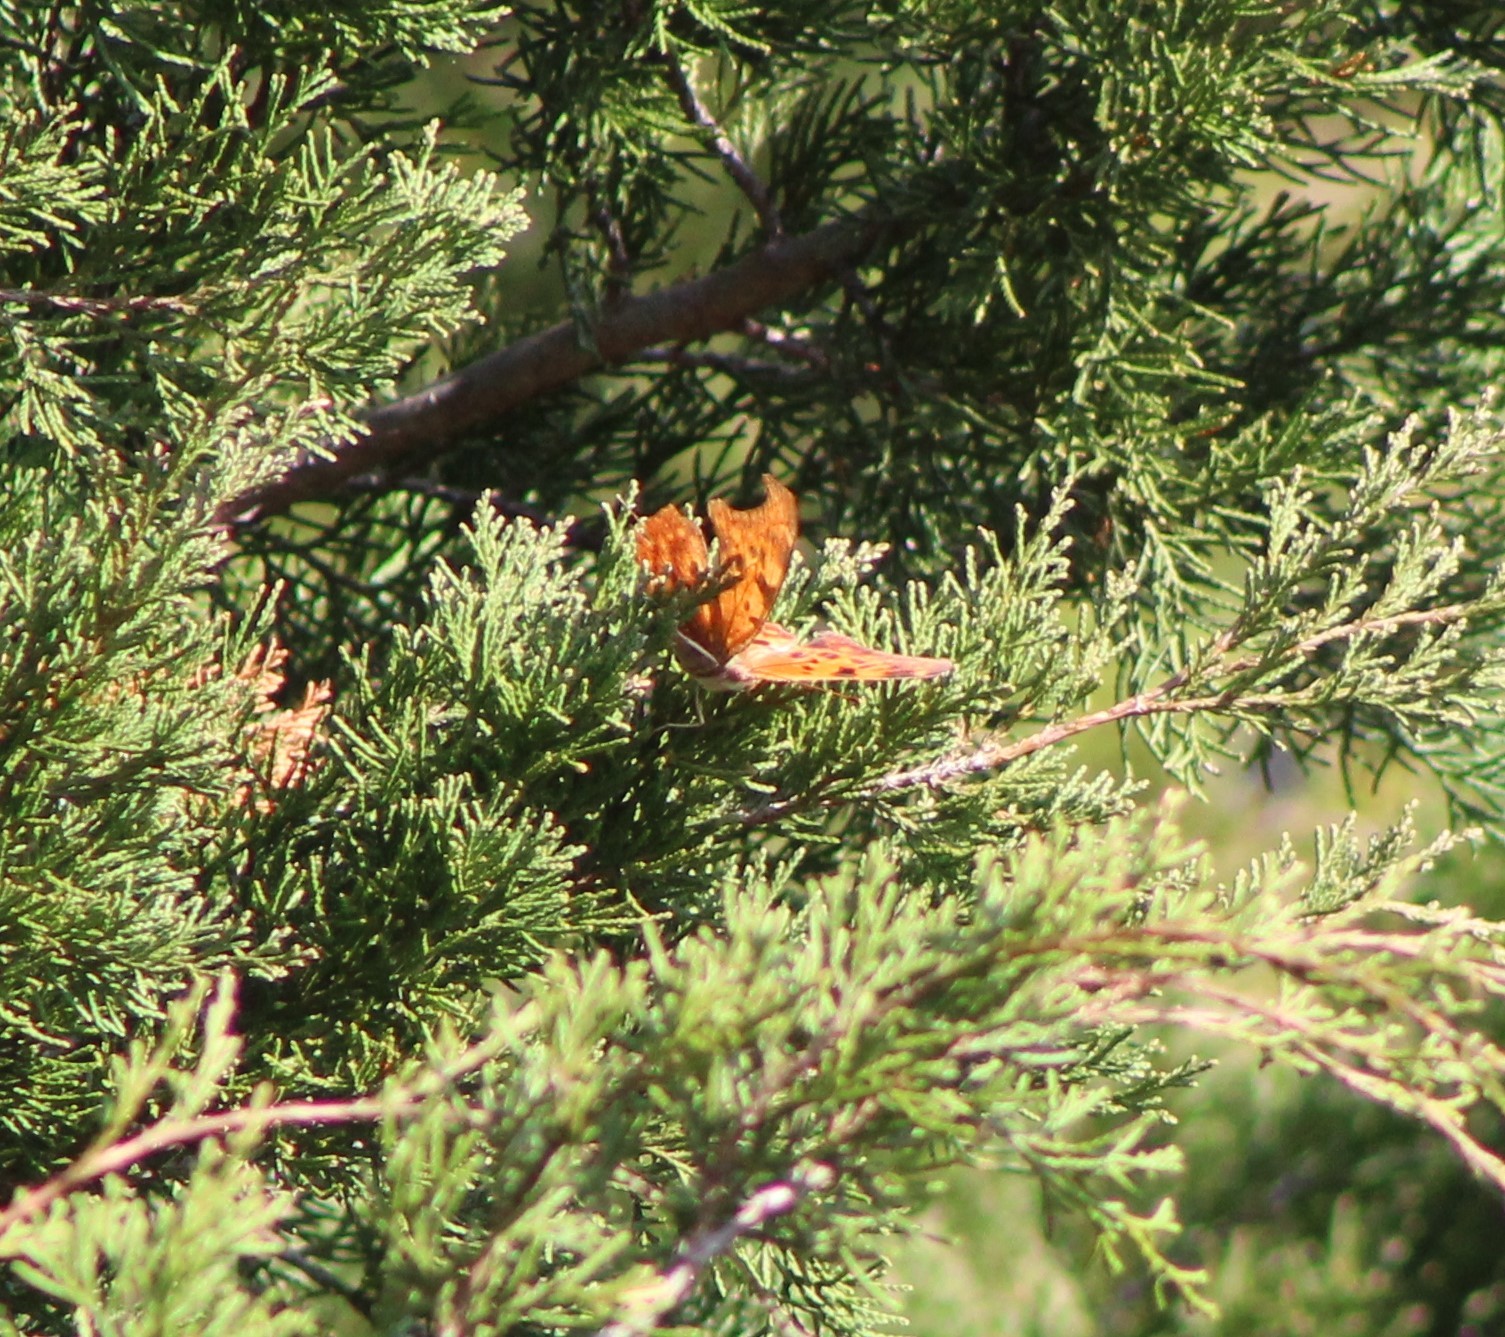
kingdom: Animalia
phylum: Arthropoda
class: Insecta
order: Lepidoptera
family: Nymphalidae
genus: Polygonia
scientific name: Polygonia interrogationis
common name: Question mark
